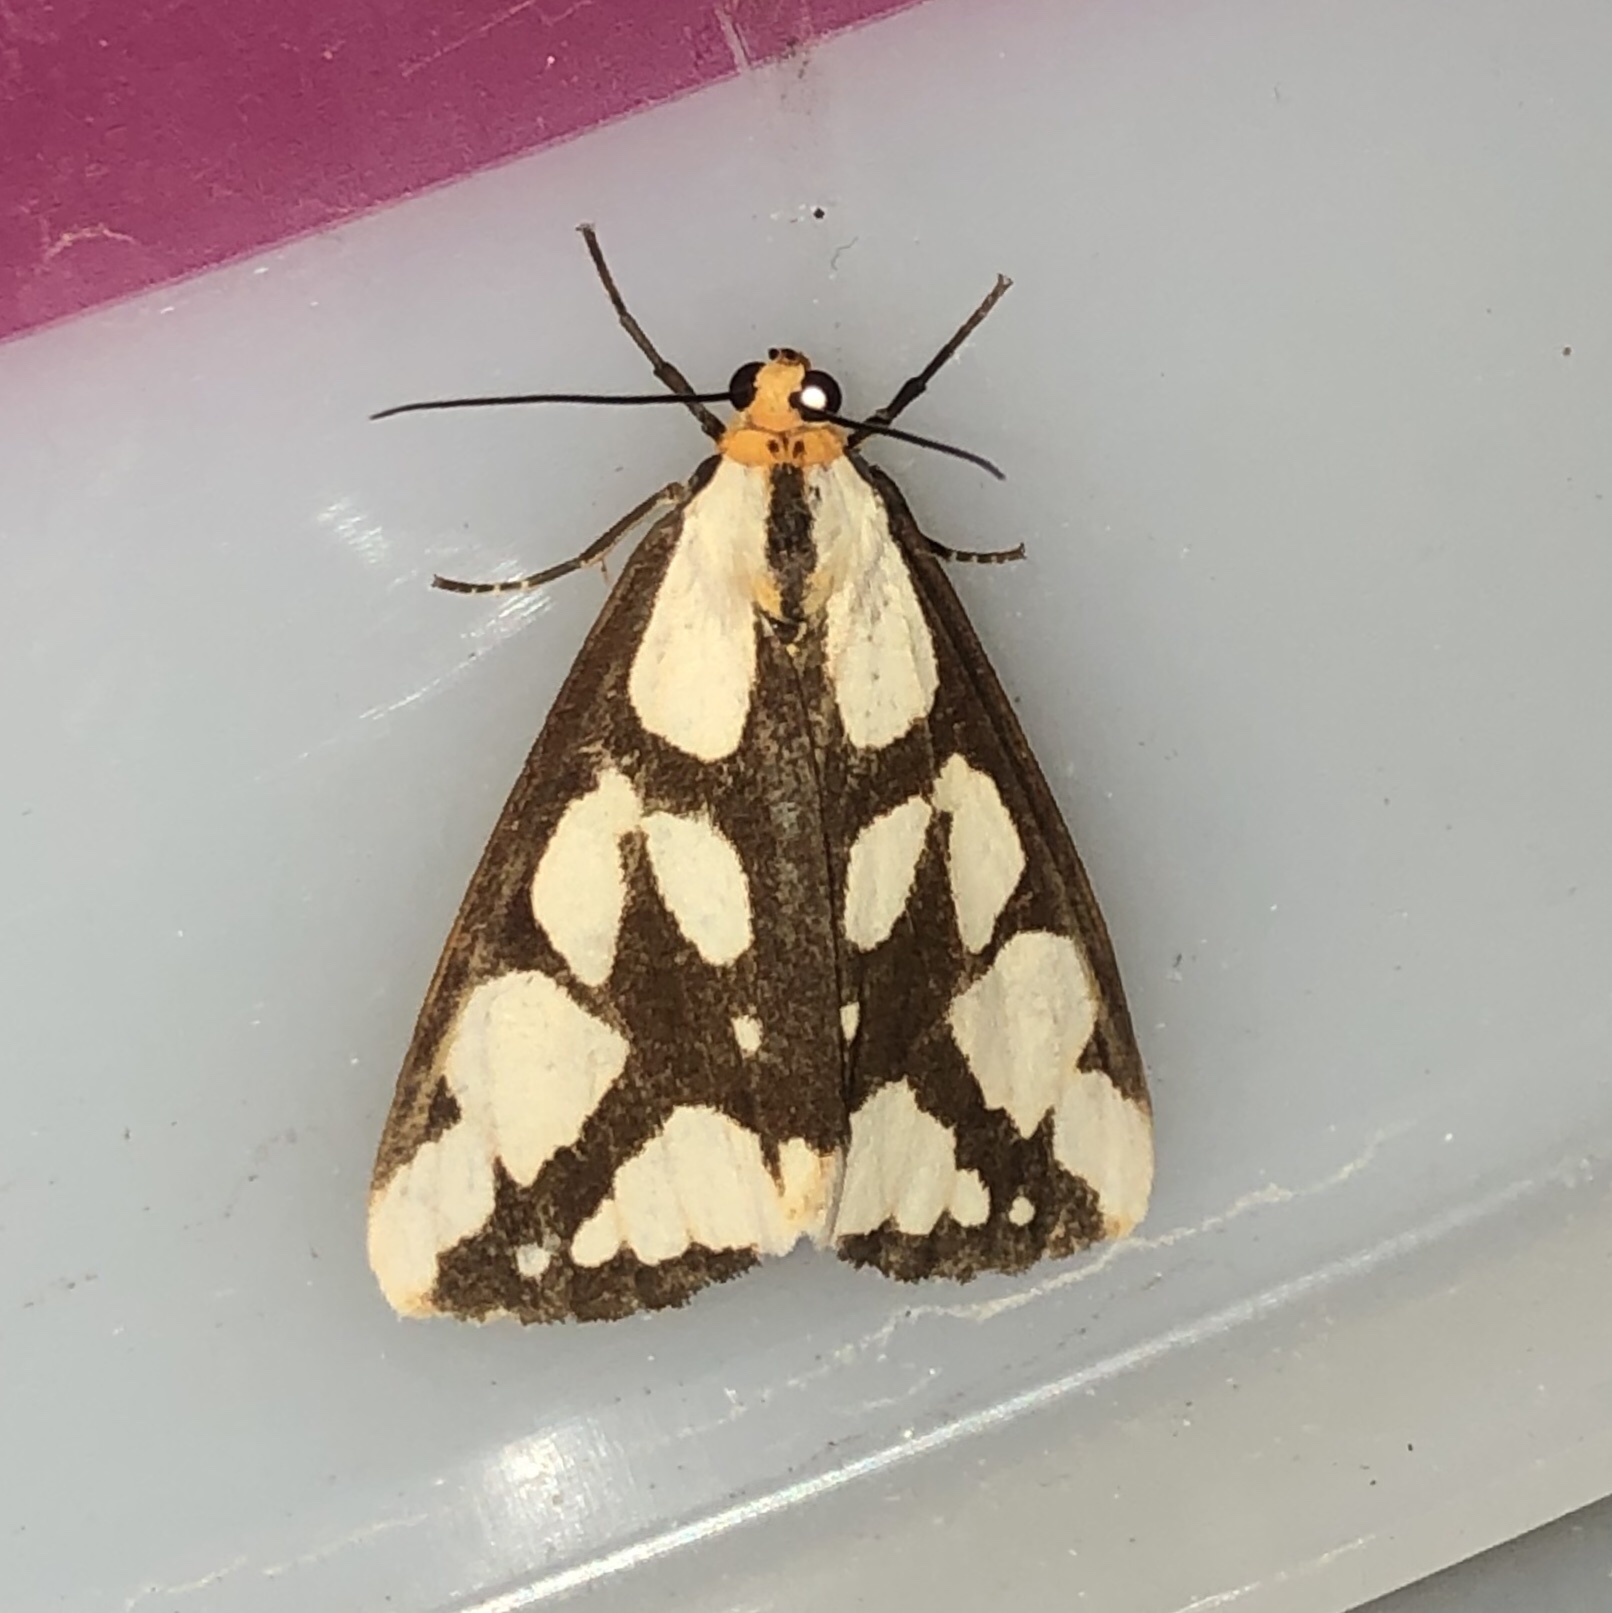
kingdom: Animalia
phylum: Arthropoda
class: Insecta
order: Lepidoptera
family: Erebidae
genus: Haploa
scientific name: Haploa confusa
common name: Confused haploa moth
